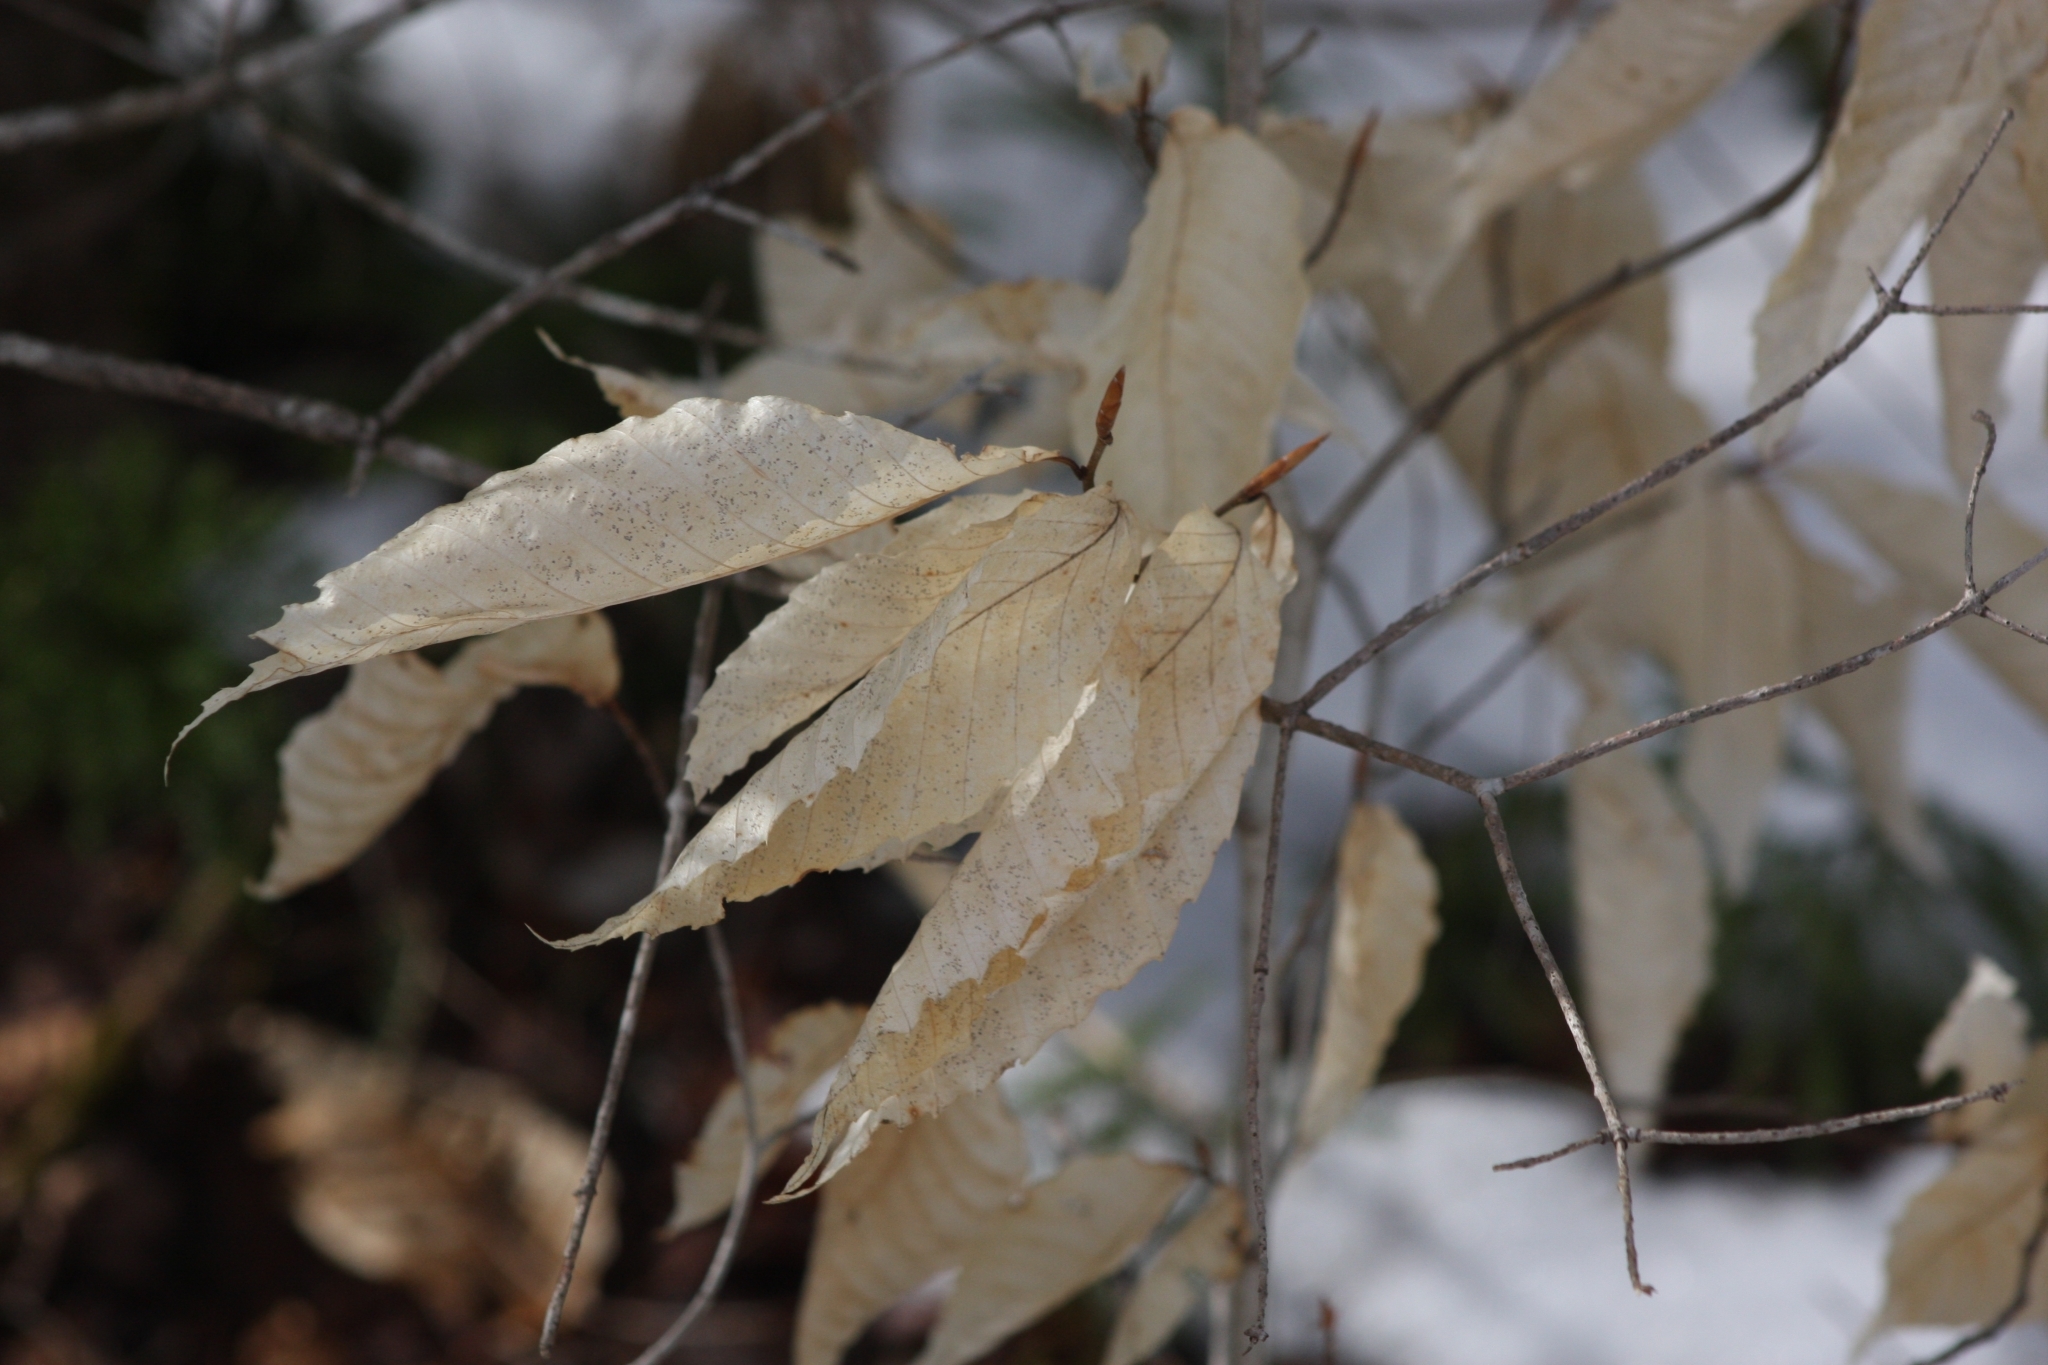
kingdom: Plantae
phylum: Tracheophyta
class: Magnoliopsida
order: Fagales
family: Fagaceae
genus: Fagus
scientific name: Fagus grandifolia
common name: American beech
